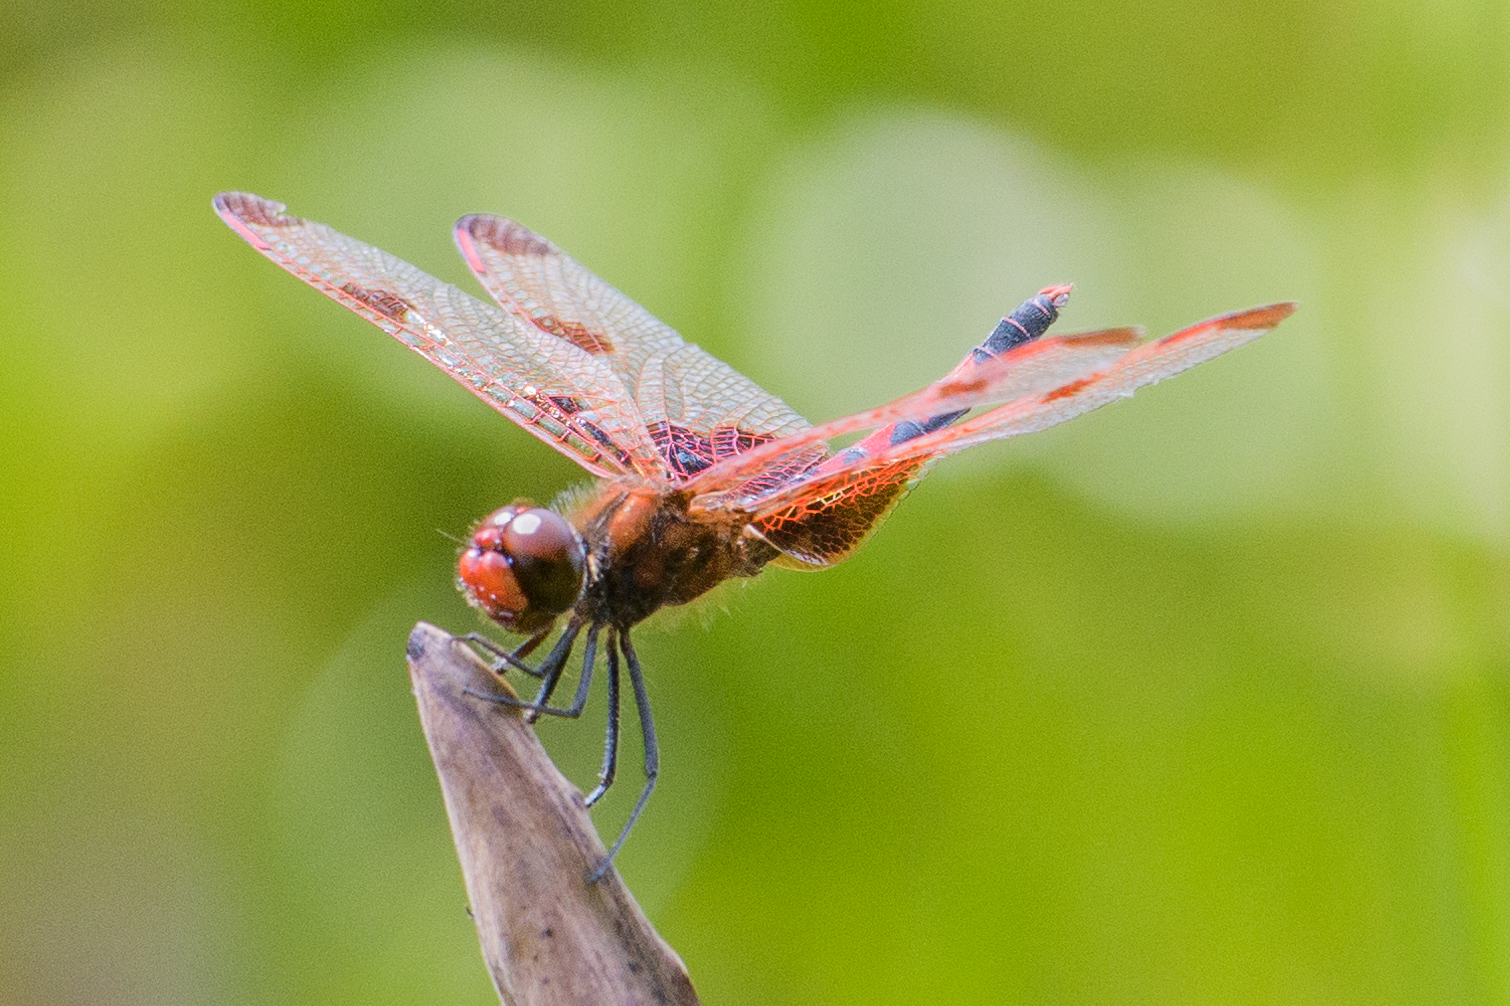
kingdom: Animalia
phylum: Arthropoda
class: Insecta
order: Odonata
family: Libellulidae
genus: Celithemis
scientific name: Celithemis elisa
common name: Calico pennant
